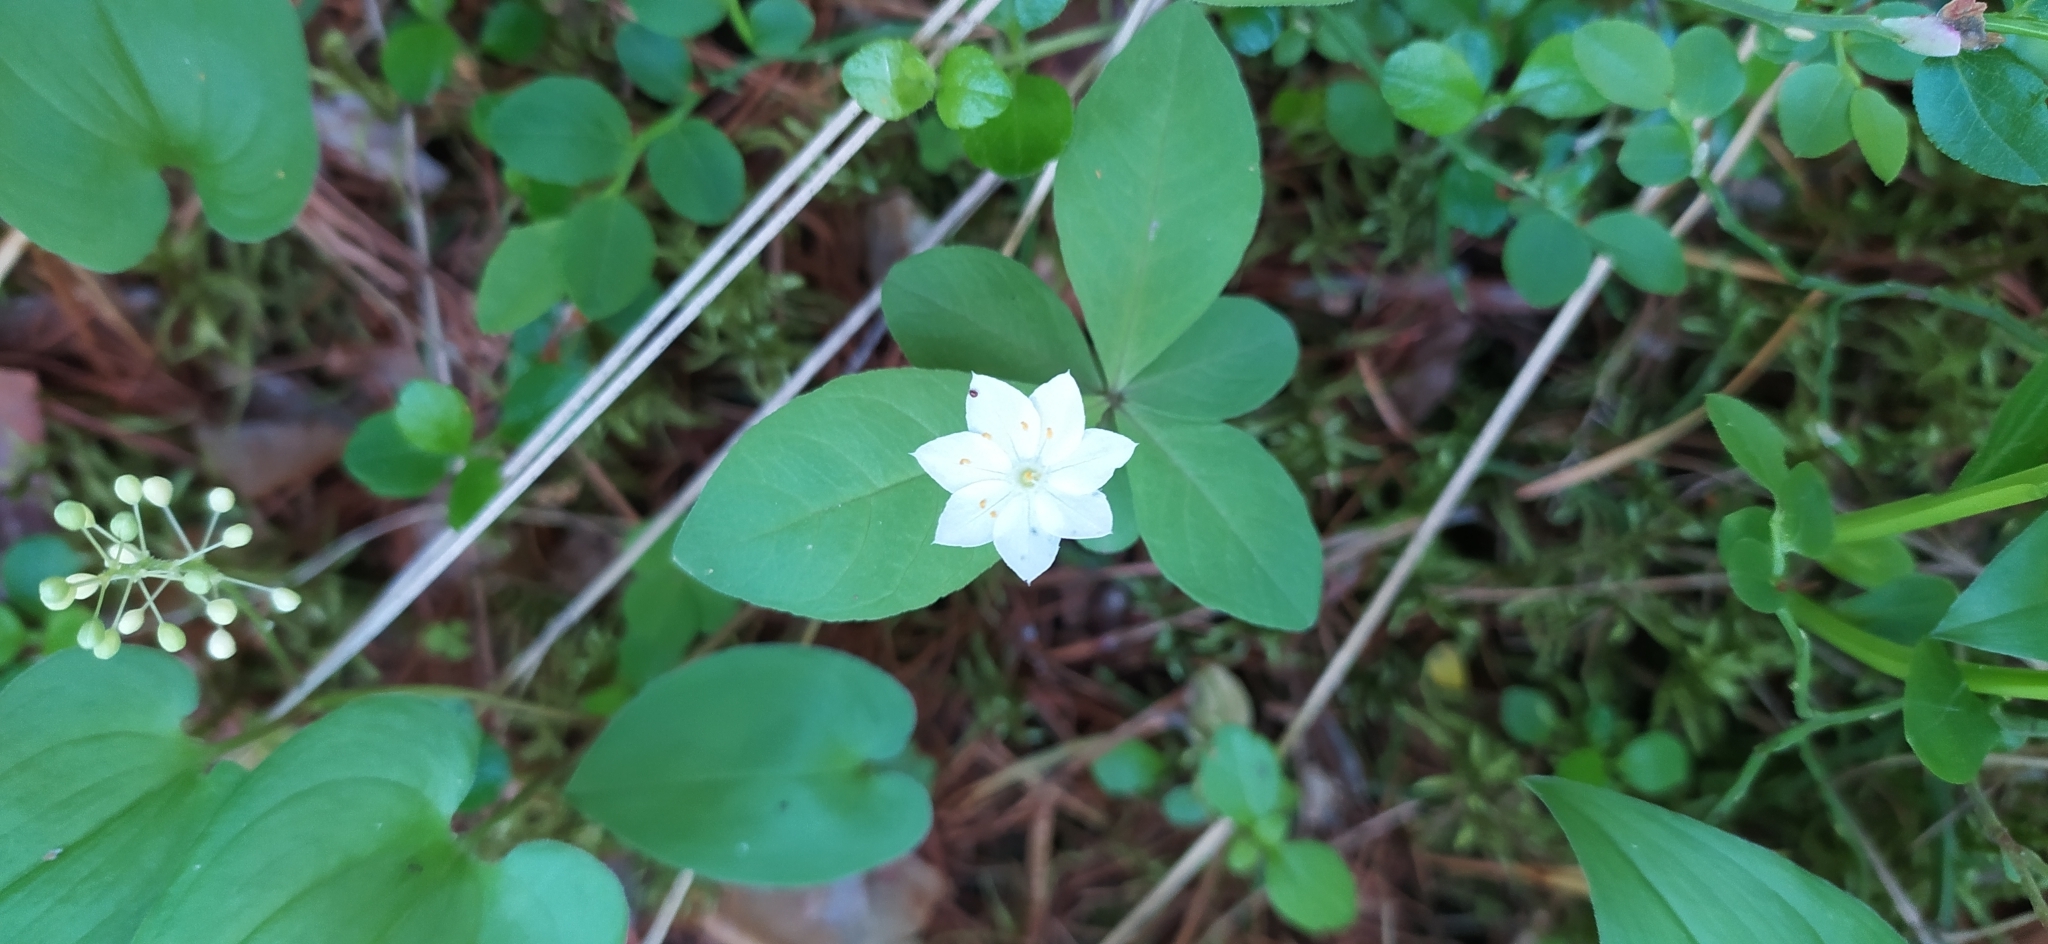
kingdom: Plantae
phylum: Tracheophyta
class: Magnoliopsida
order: Ericales
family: Primulaceae
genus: Lysimachia
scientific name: Lysimachia europaea
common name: Arctic starflower
